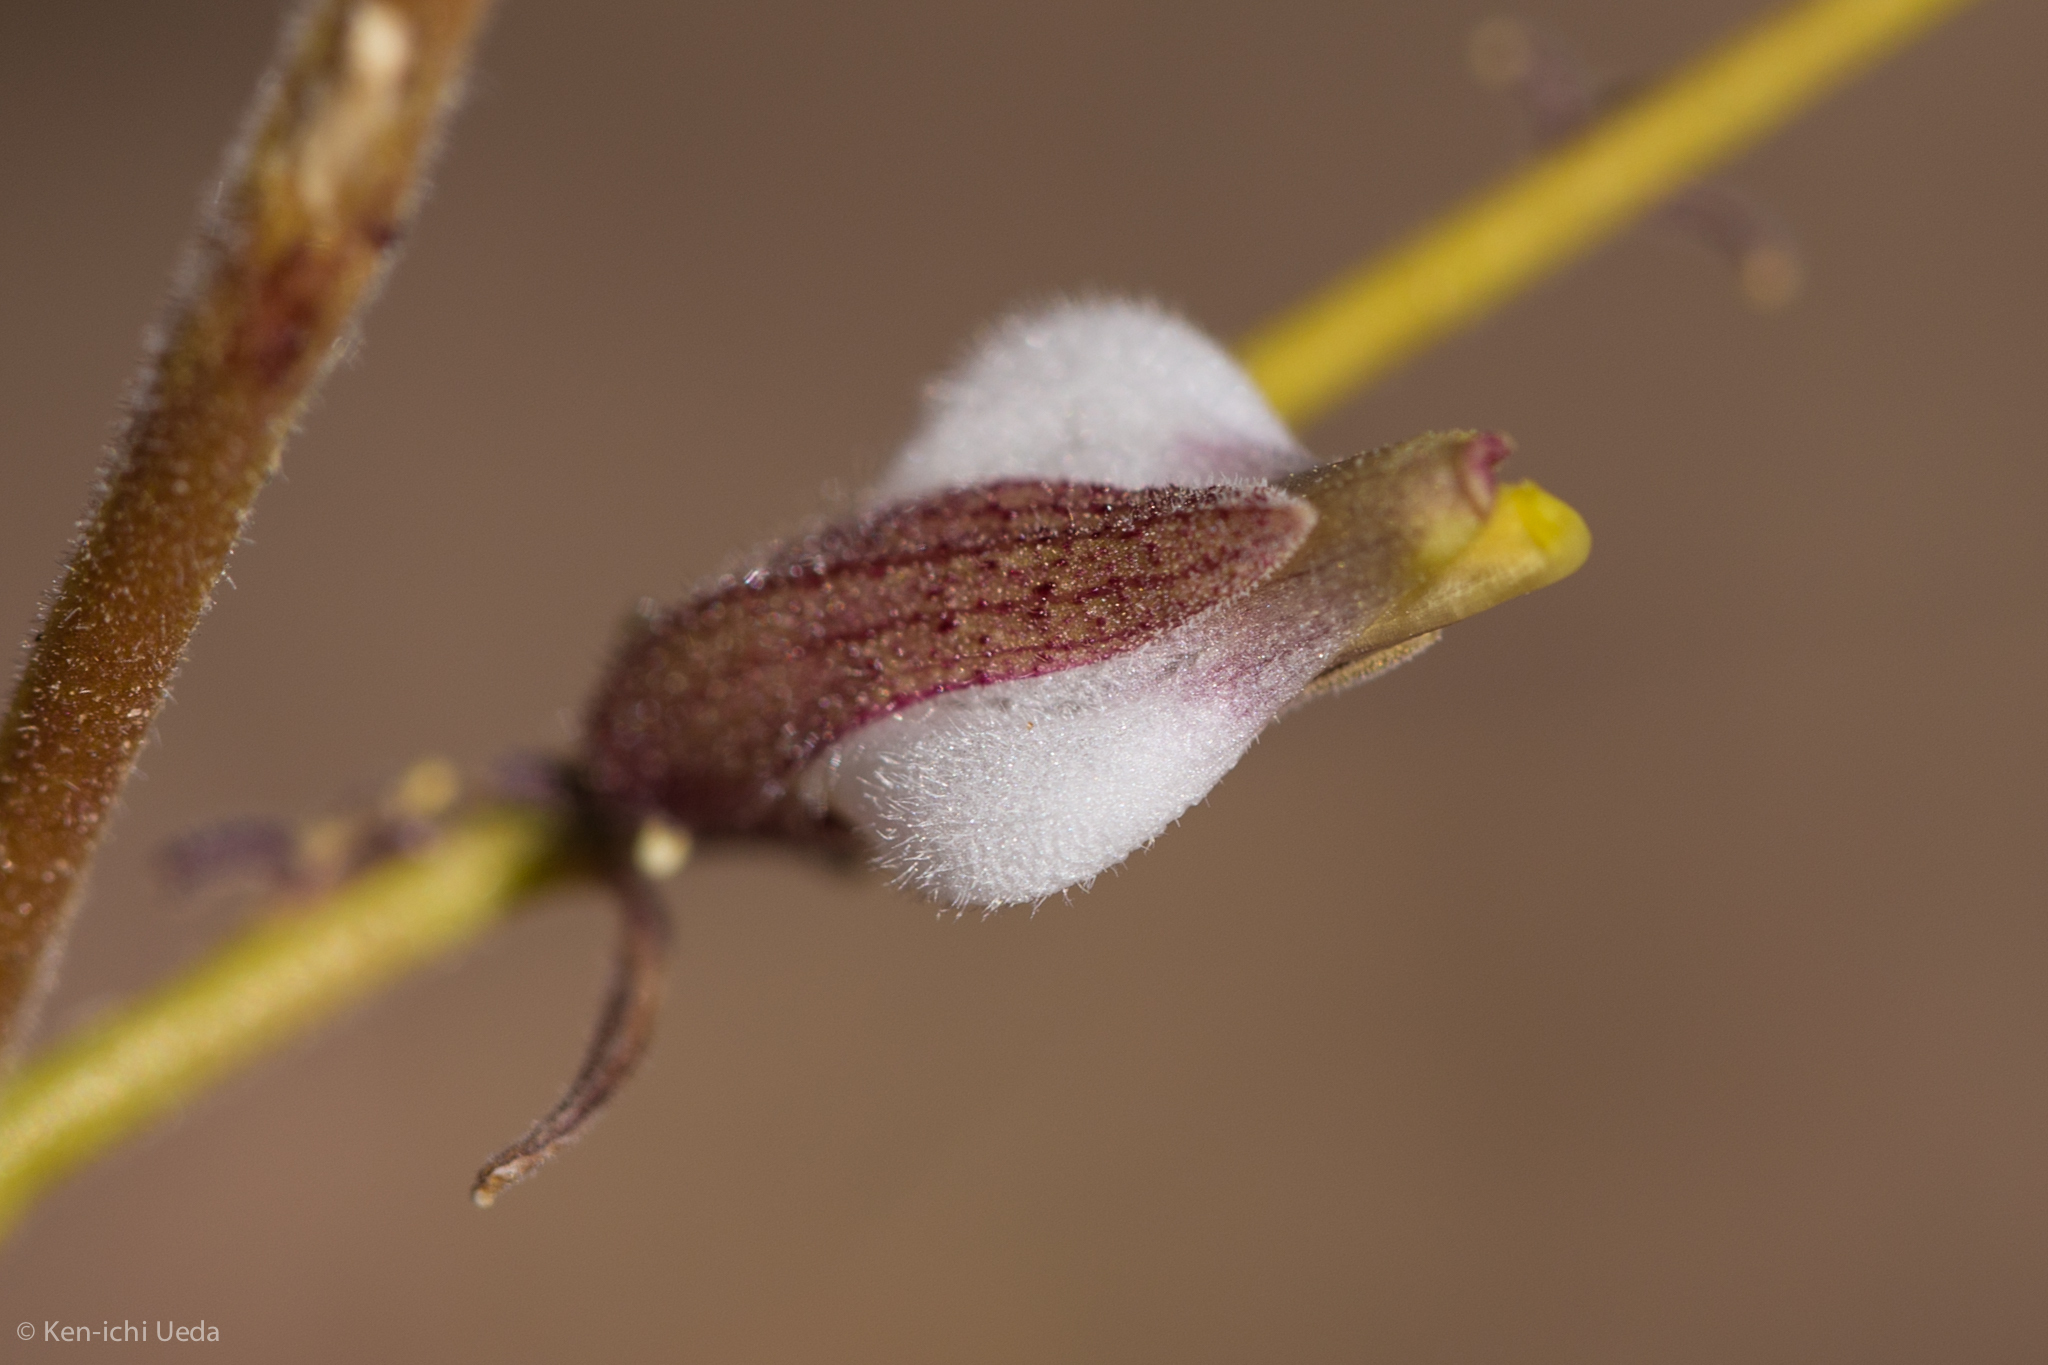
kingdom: Plantae
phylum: Tracheophyta
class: Magnoliopsida
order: Lamiales
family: Orobanchaceae
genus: Cordylanthus
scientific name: Cordylanthus nevinii
